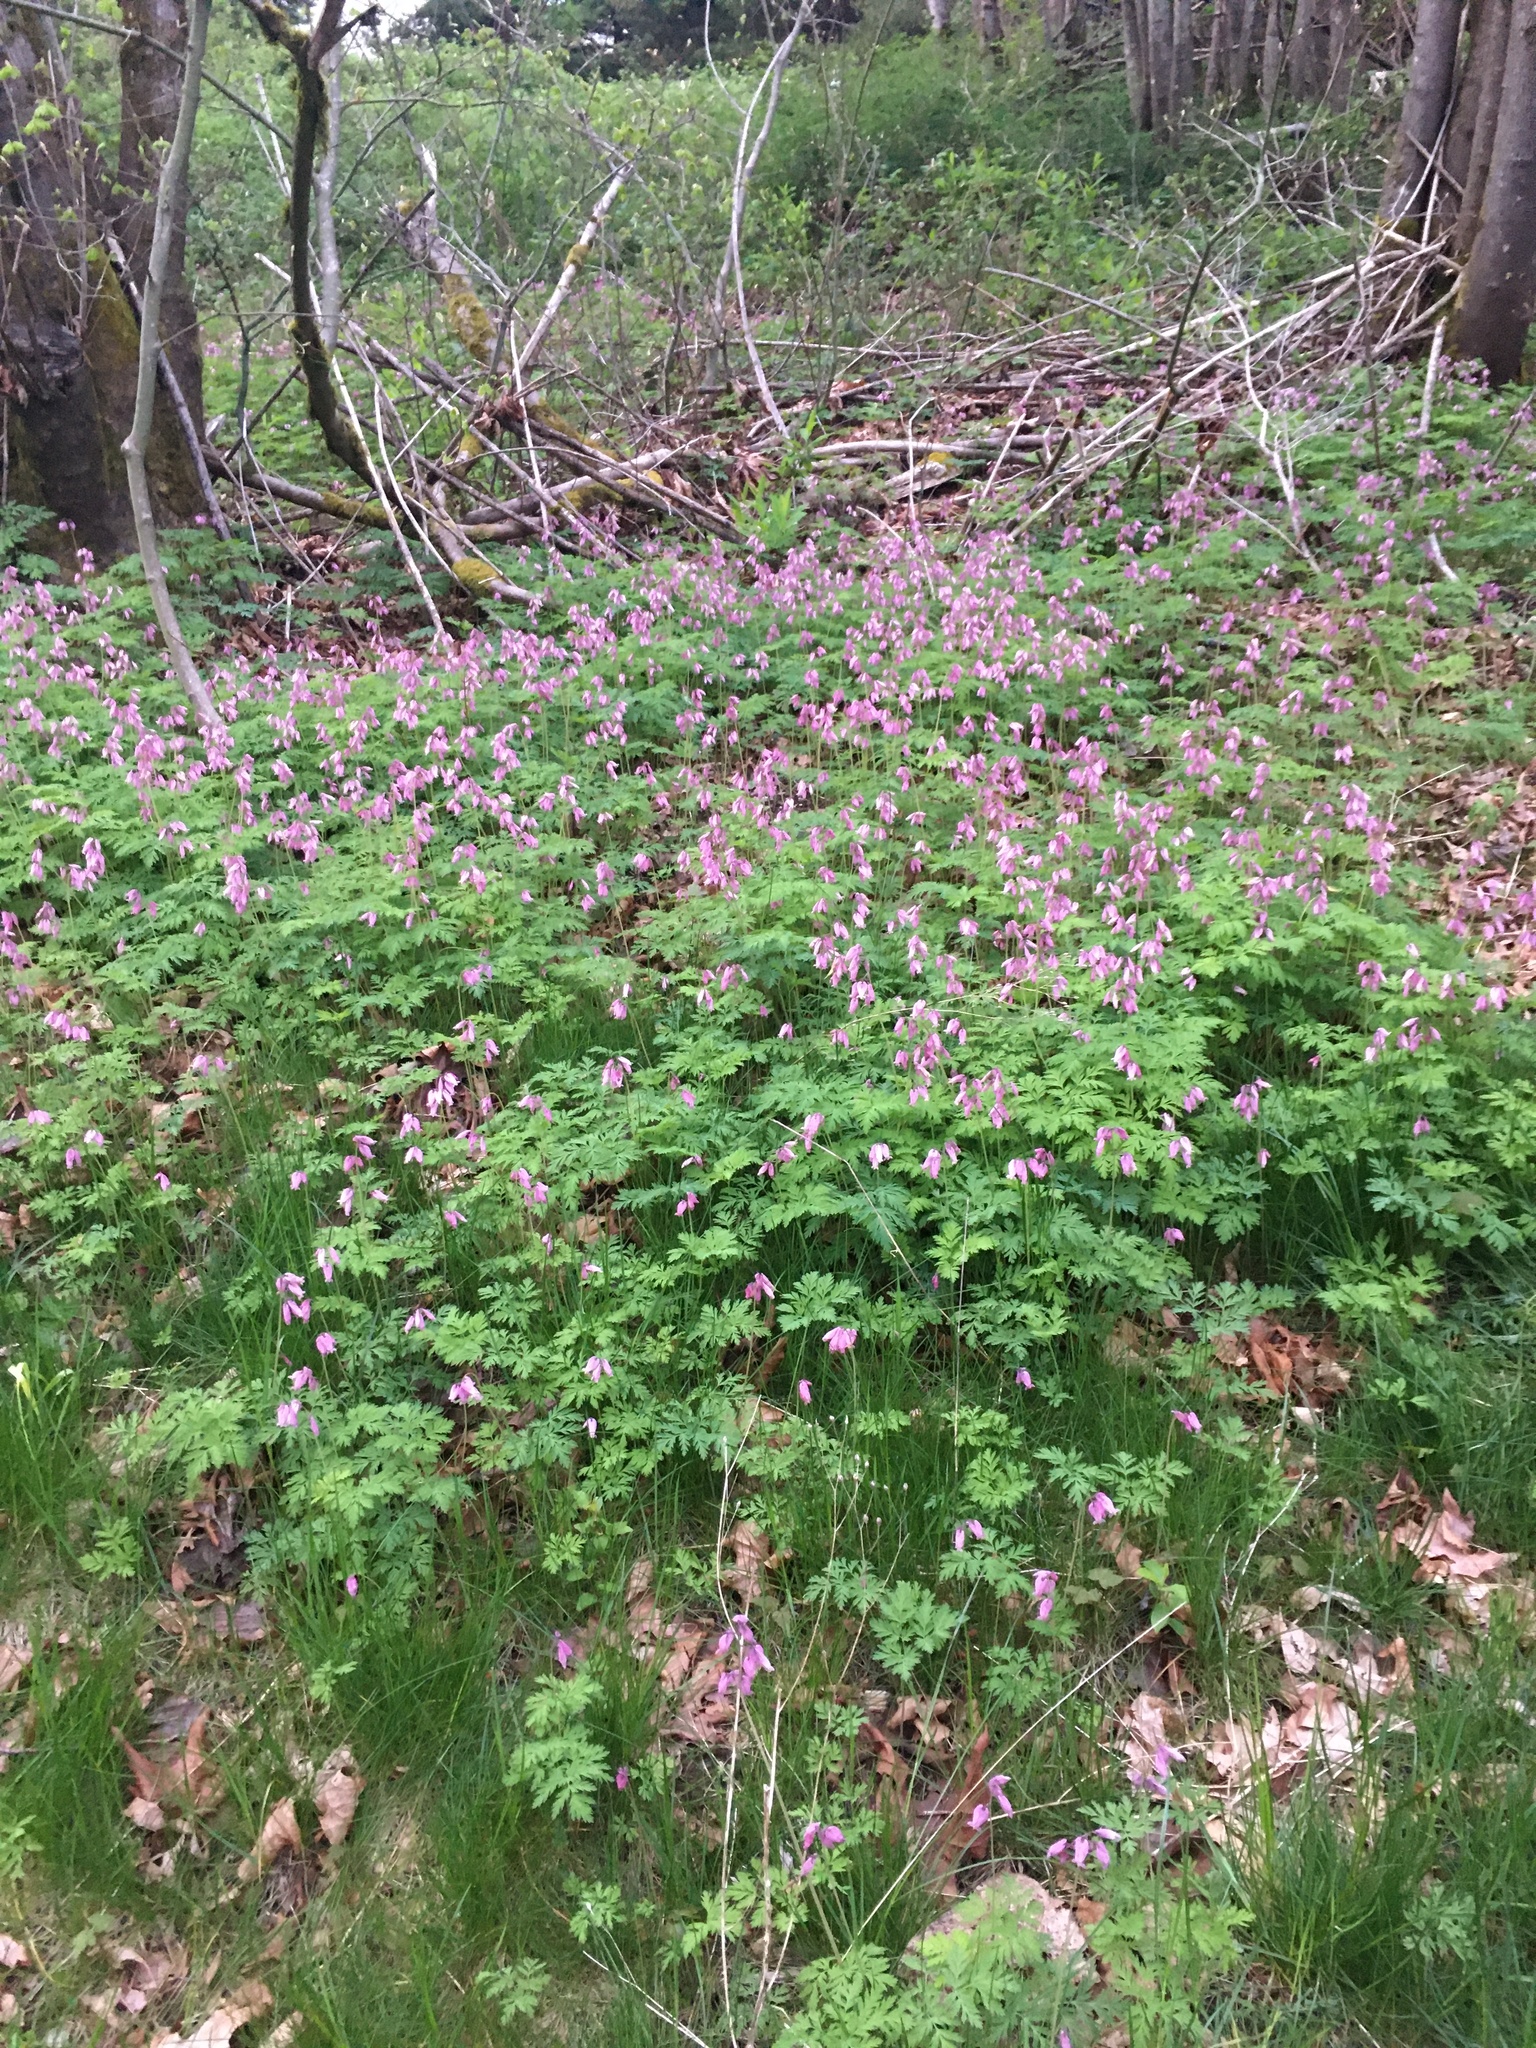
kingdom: Plantae
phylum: Tracheophyta
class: Magnoliopsida
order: Ranunculales
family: Papaveraceae
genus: Dicentra
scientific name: Dicentra formosa
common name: Bleeding-heart
